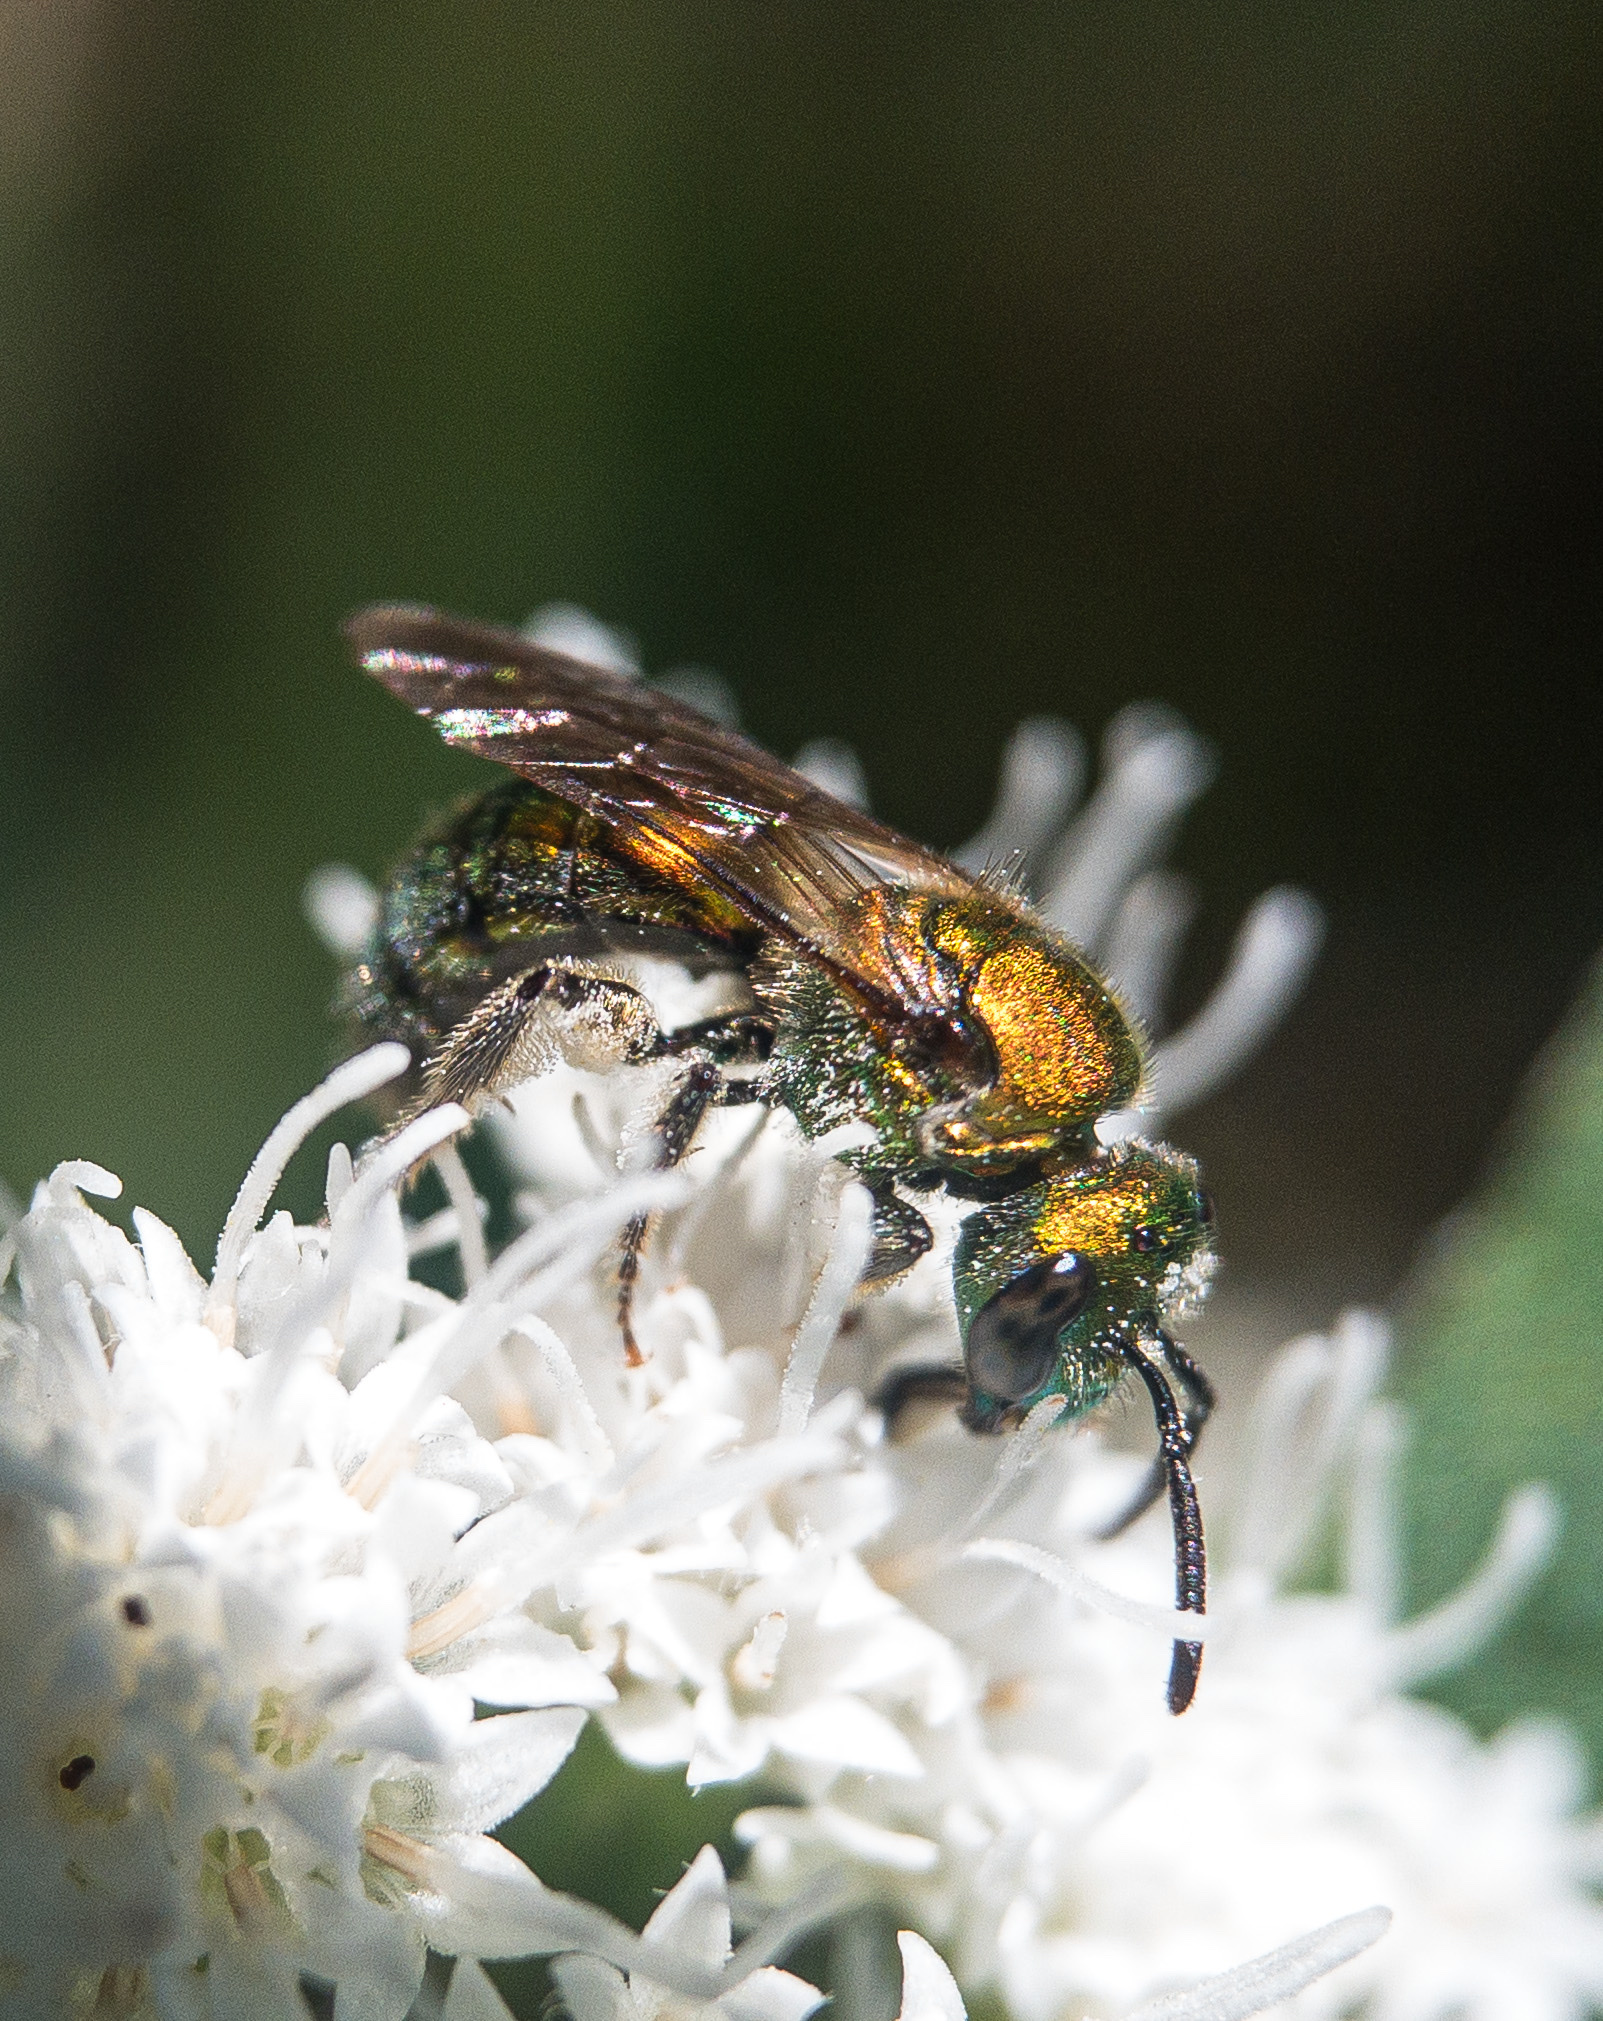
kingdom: Animalia
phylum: Arthropoda
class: Insecta
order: Hymenoptera
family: Halictidae
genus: Augochlora
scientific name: Augochlora pura
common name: Pure green sweat bee
